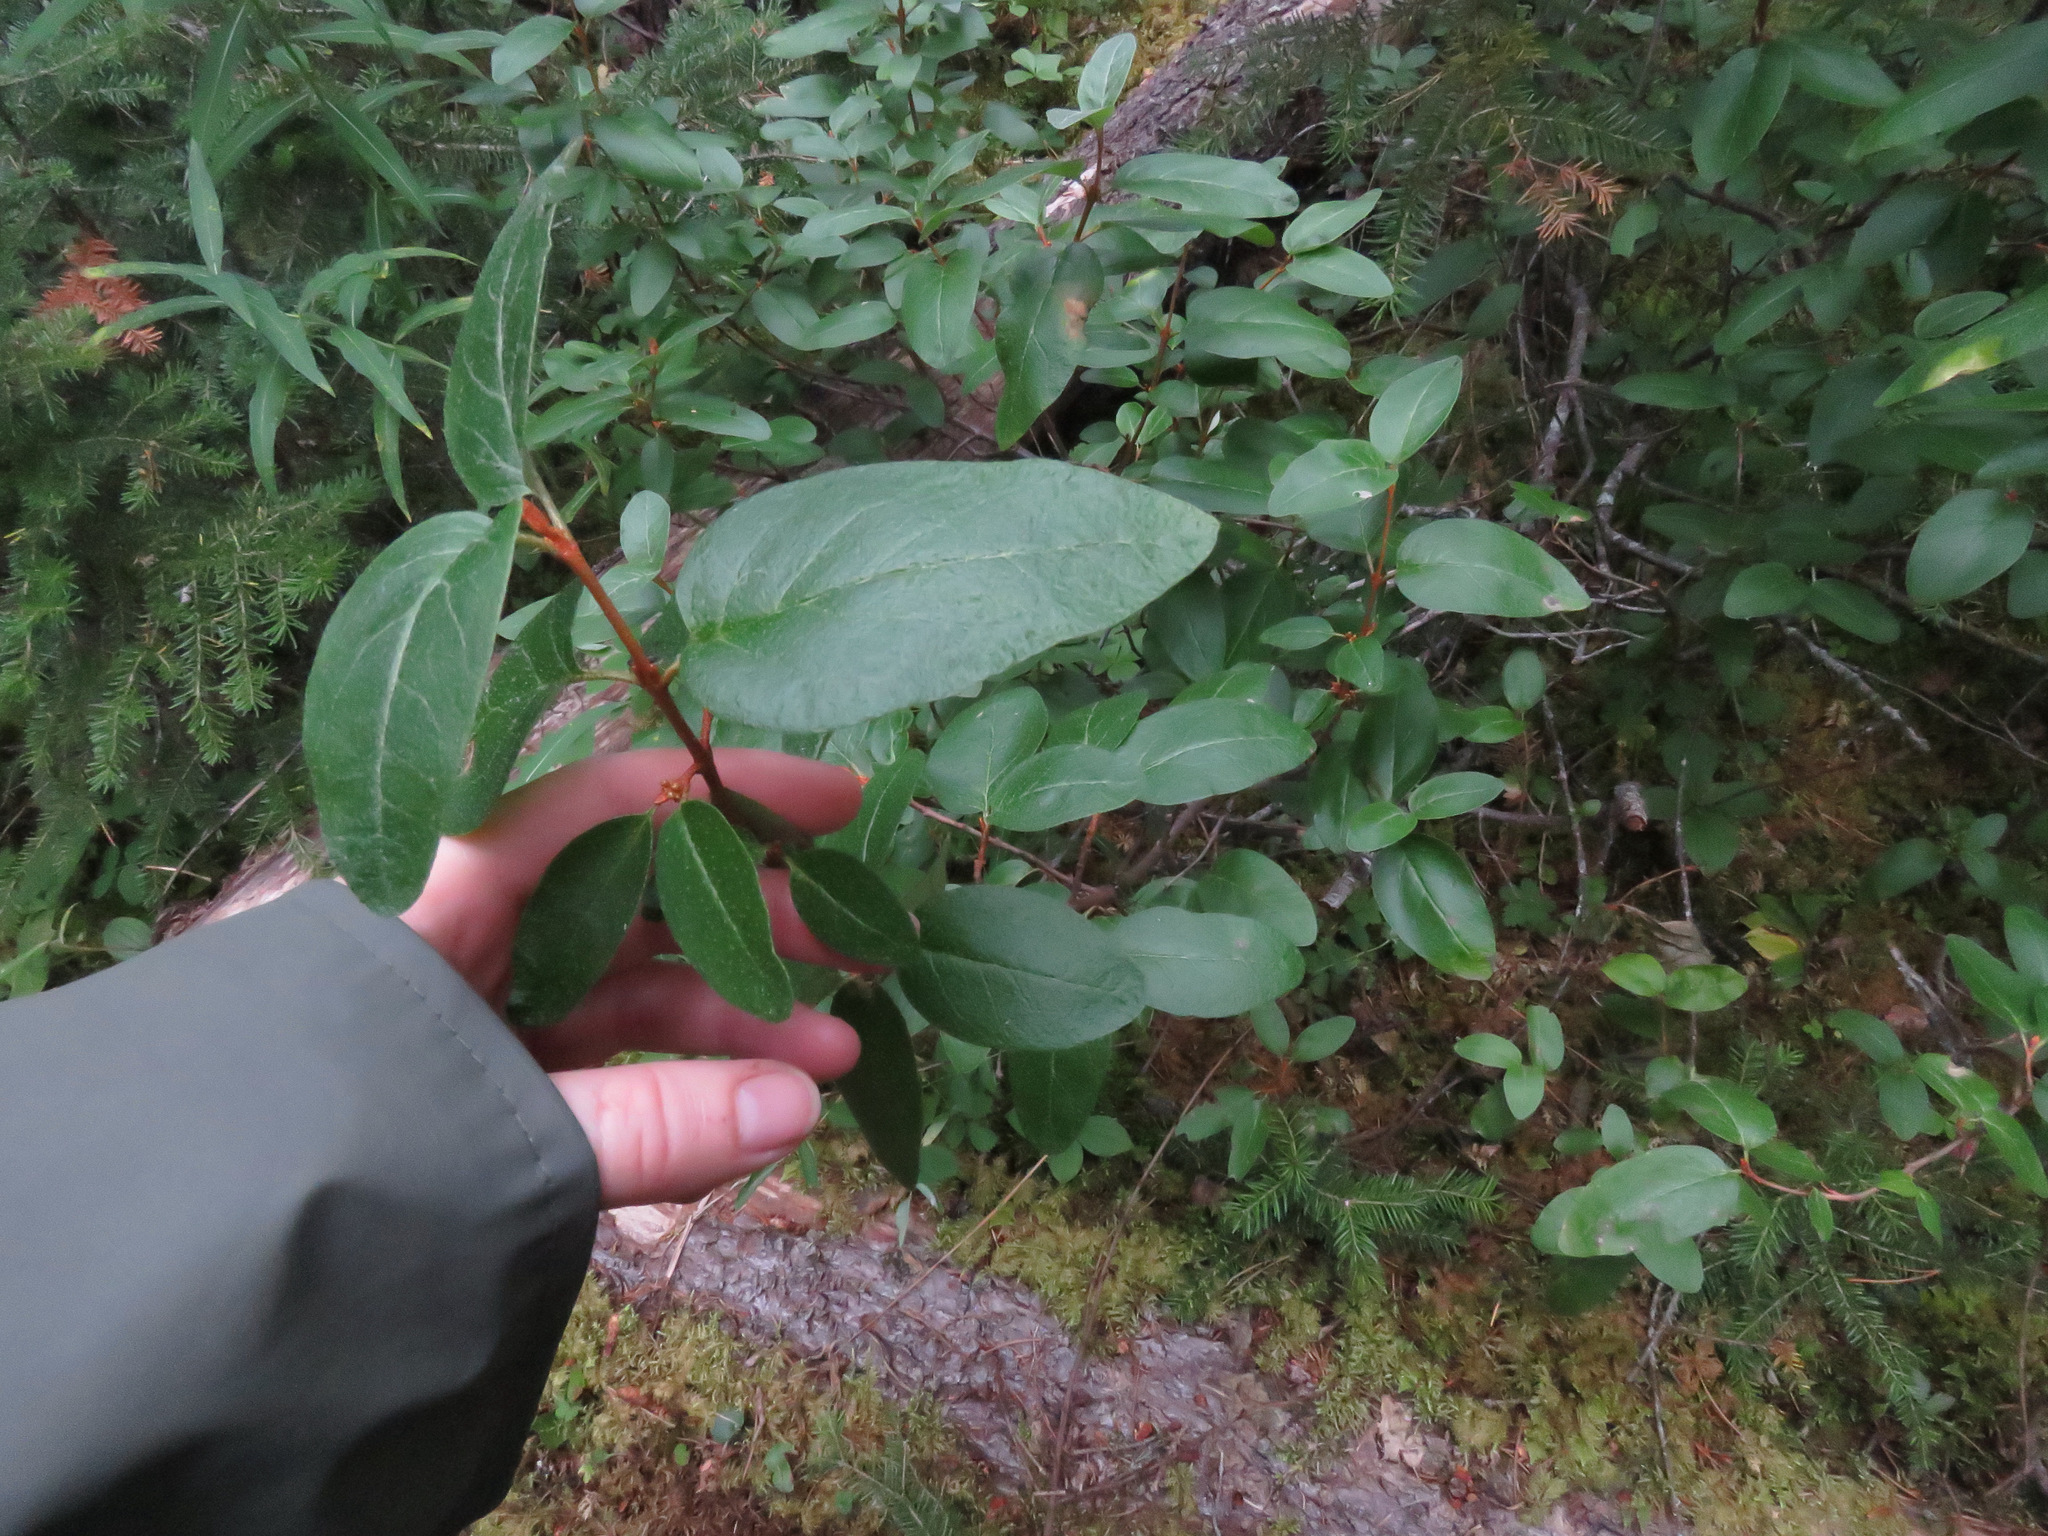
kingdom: Plantae
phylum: Tracheophyta
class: Magnoliopsida
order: Rosales
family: Elaeagnaceae
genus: Shepherdia
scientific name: Shepherdia canadensis
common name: Soapberry
